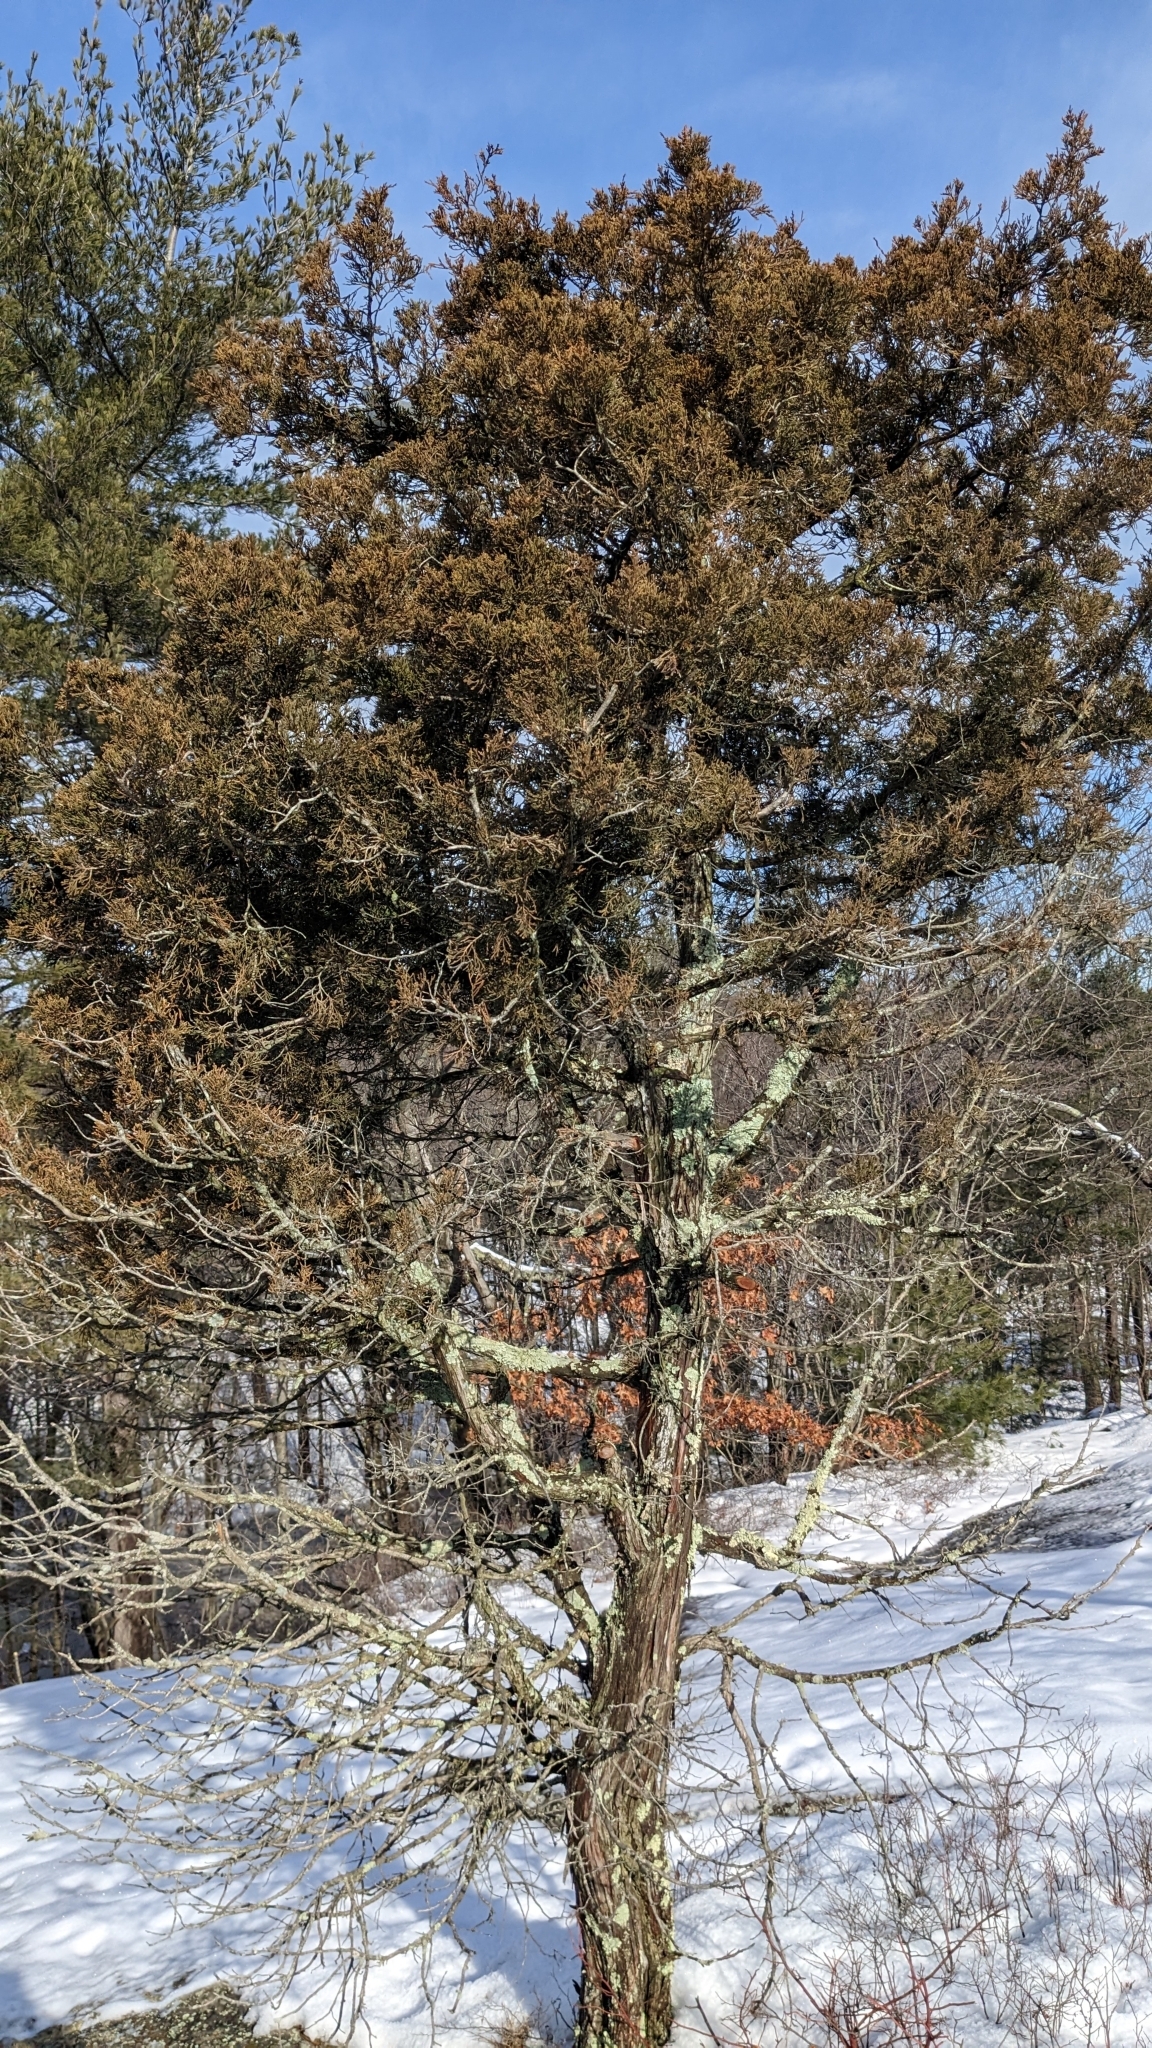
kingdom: Plantae
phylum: Tracheophyta
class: Pinopsida
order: Pinales
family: Cupressaceae
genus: Juniperus
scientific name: Juniperus virginiana
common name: Red juniper
